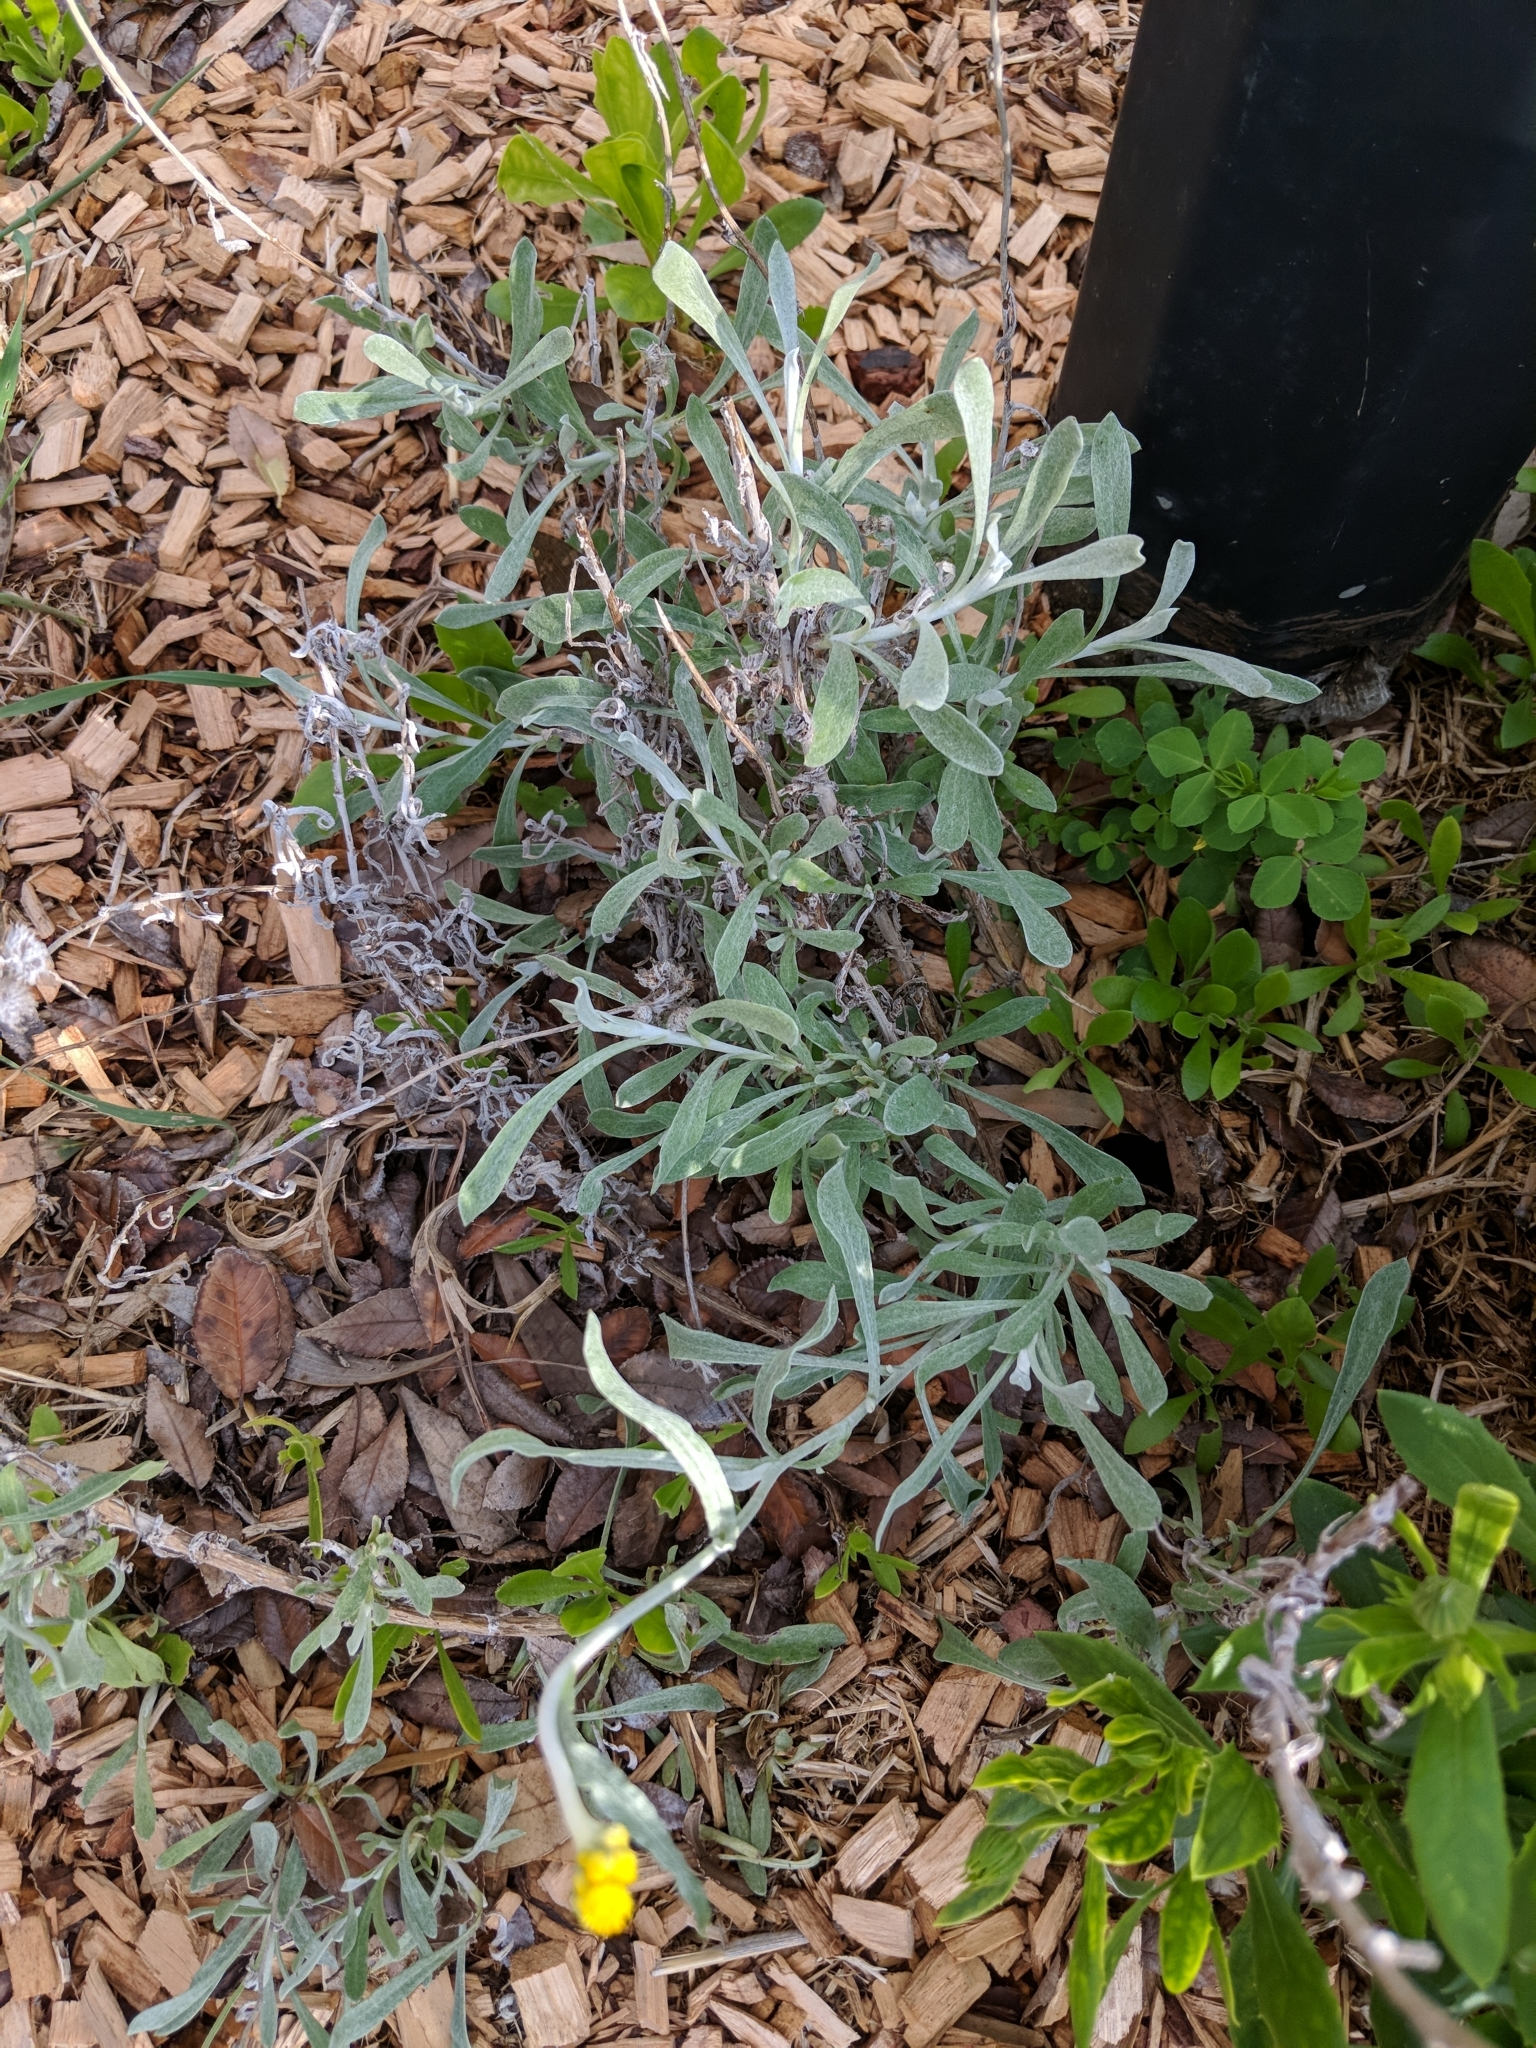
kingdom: Plantae
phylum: Tracheophyta
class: Magnoliopsida
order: Asterales
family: Asteraceae
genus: Chrysocephalum
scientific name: Chrysocephalum apiculatum
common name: Common everlasting
